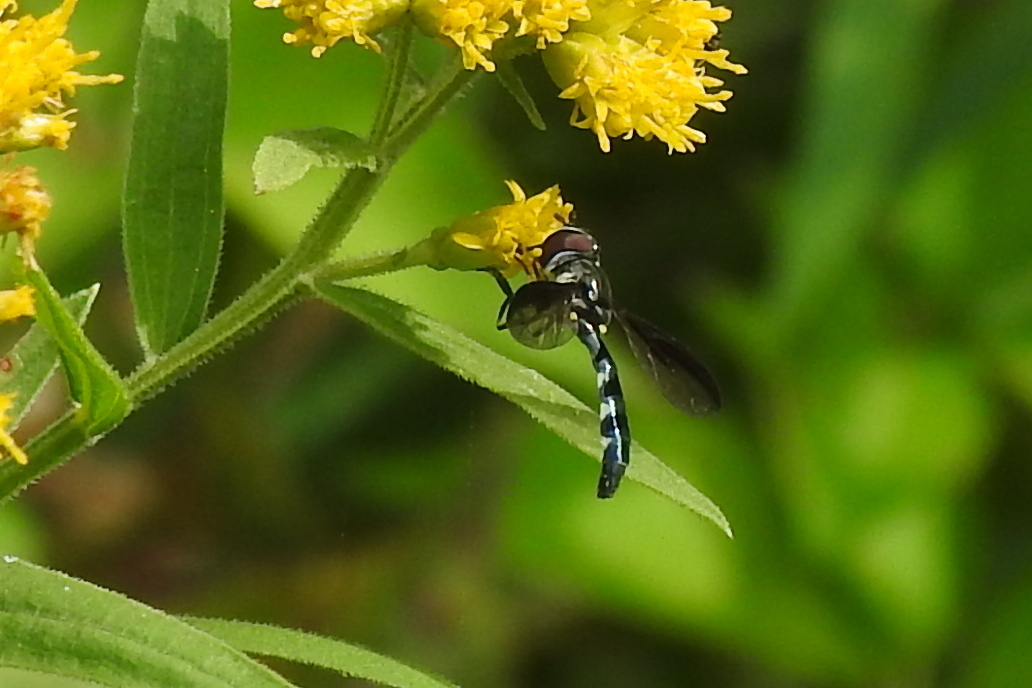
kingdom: Animalia
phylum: Arthropoda
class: Insecta
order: Diptera
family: Syrphidae
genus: Ocyptamus
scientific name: Ocyptamus costatus
